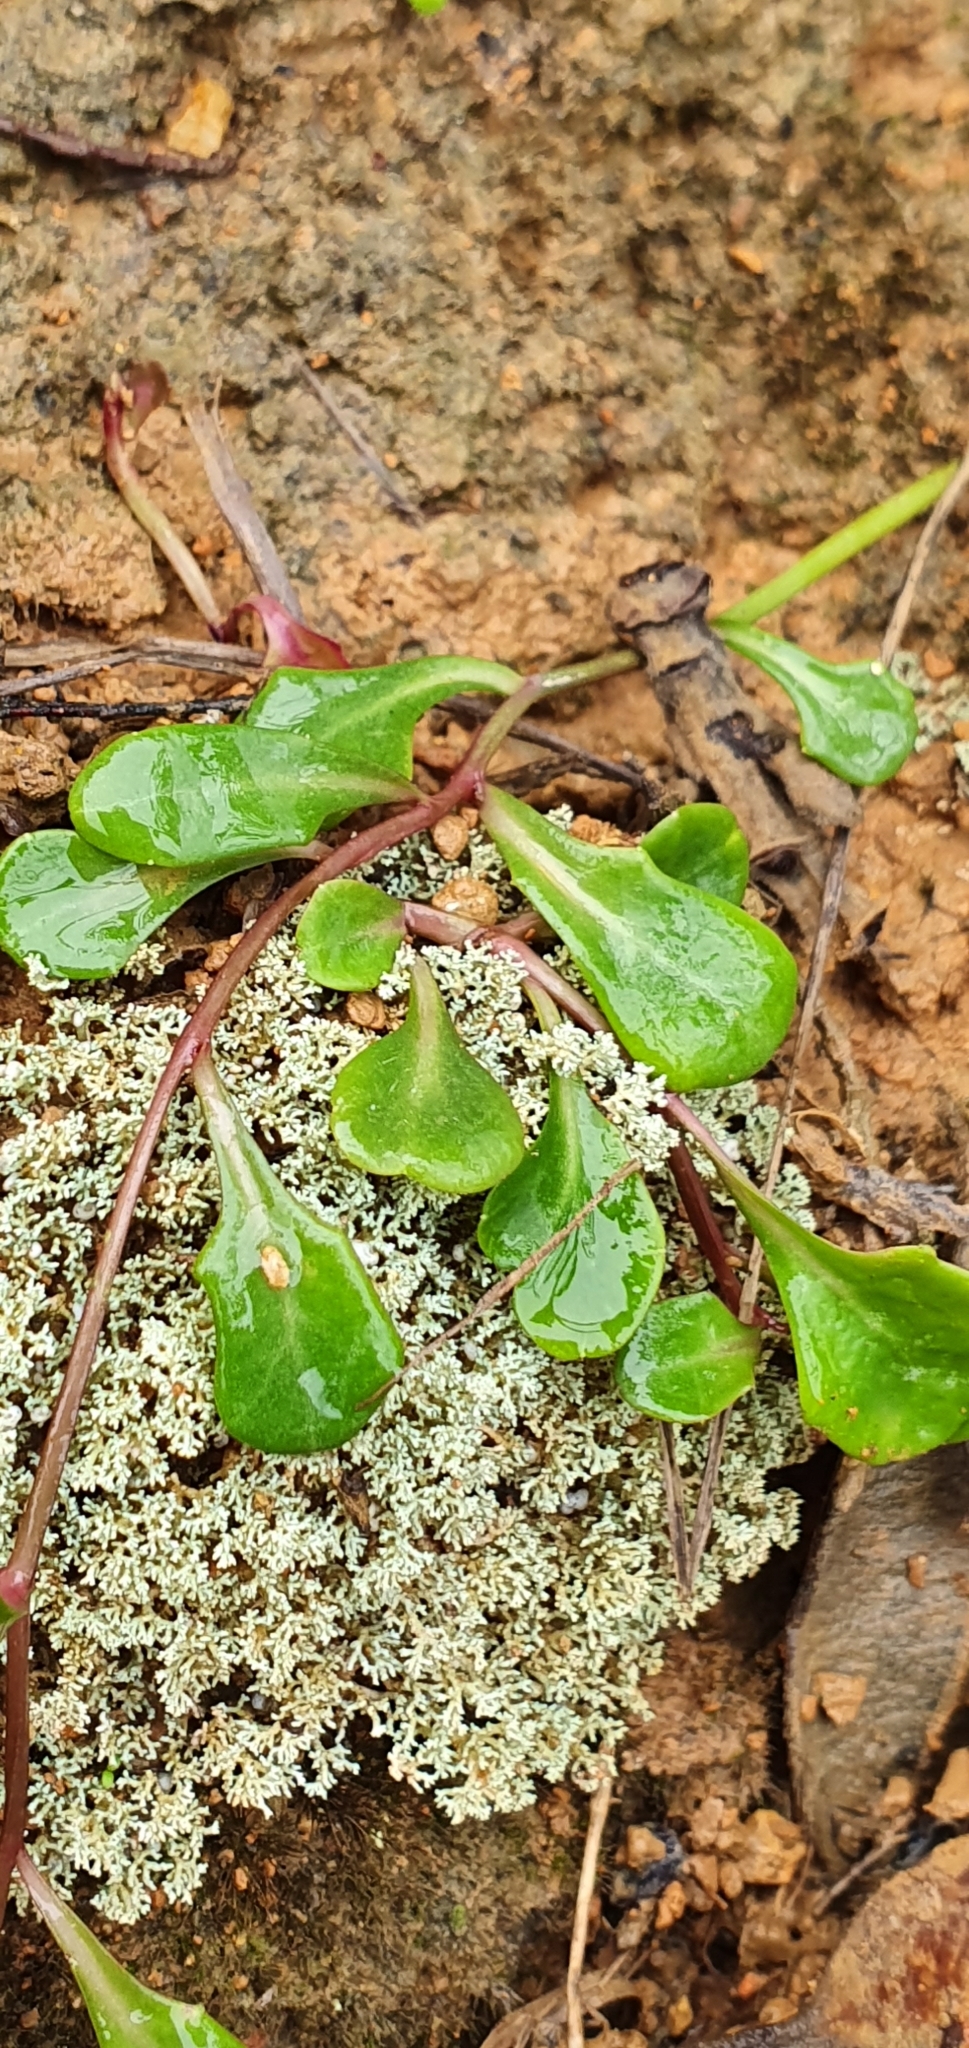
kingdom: Plantae
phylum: Tracheophyta
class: Magnoliopsida
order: Asterales
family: Campanulaceae
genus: Lobelia
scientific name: Lobelia anceps
